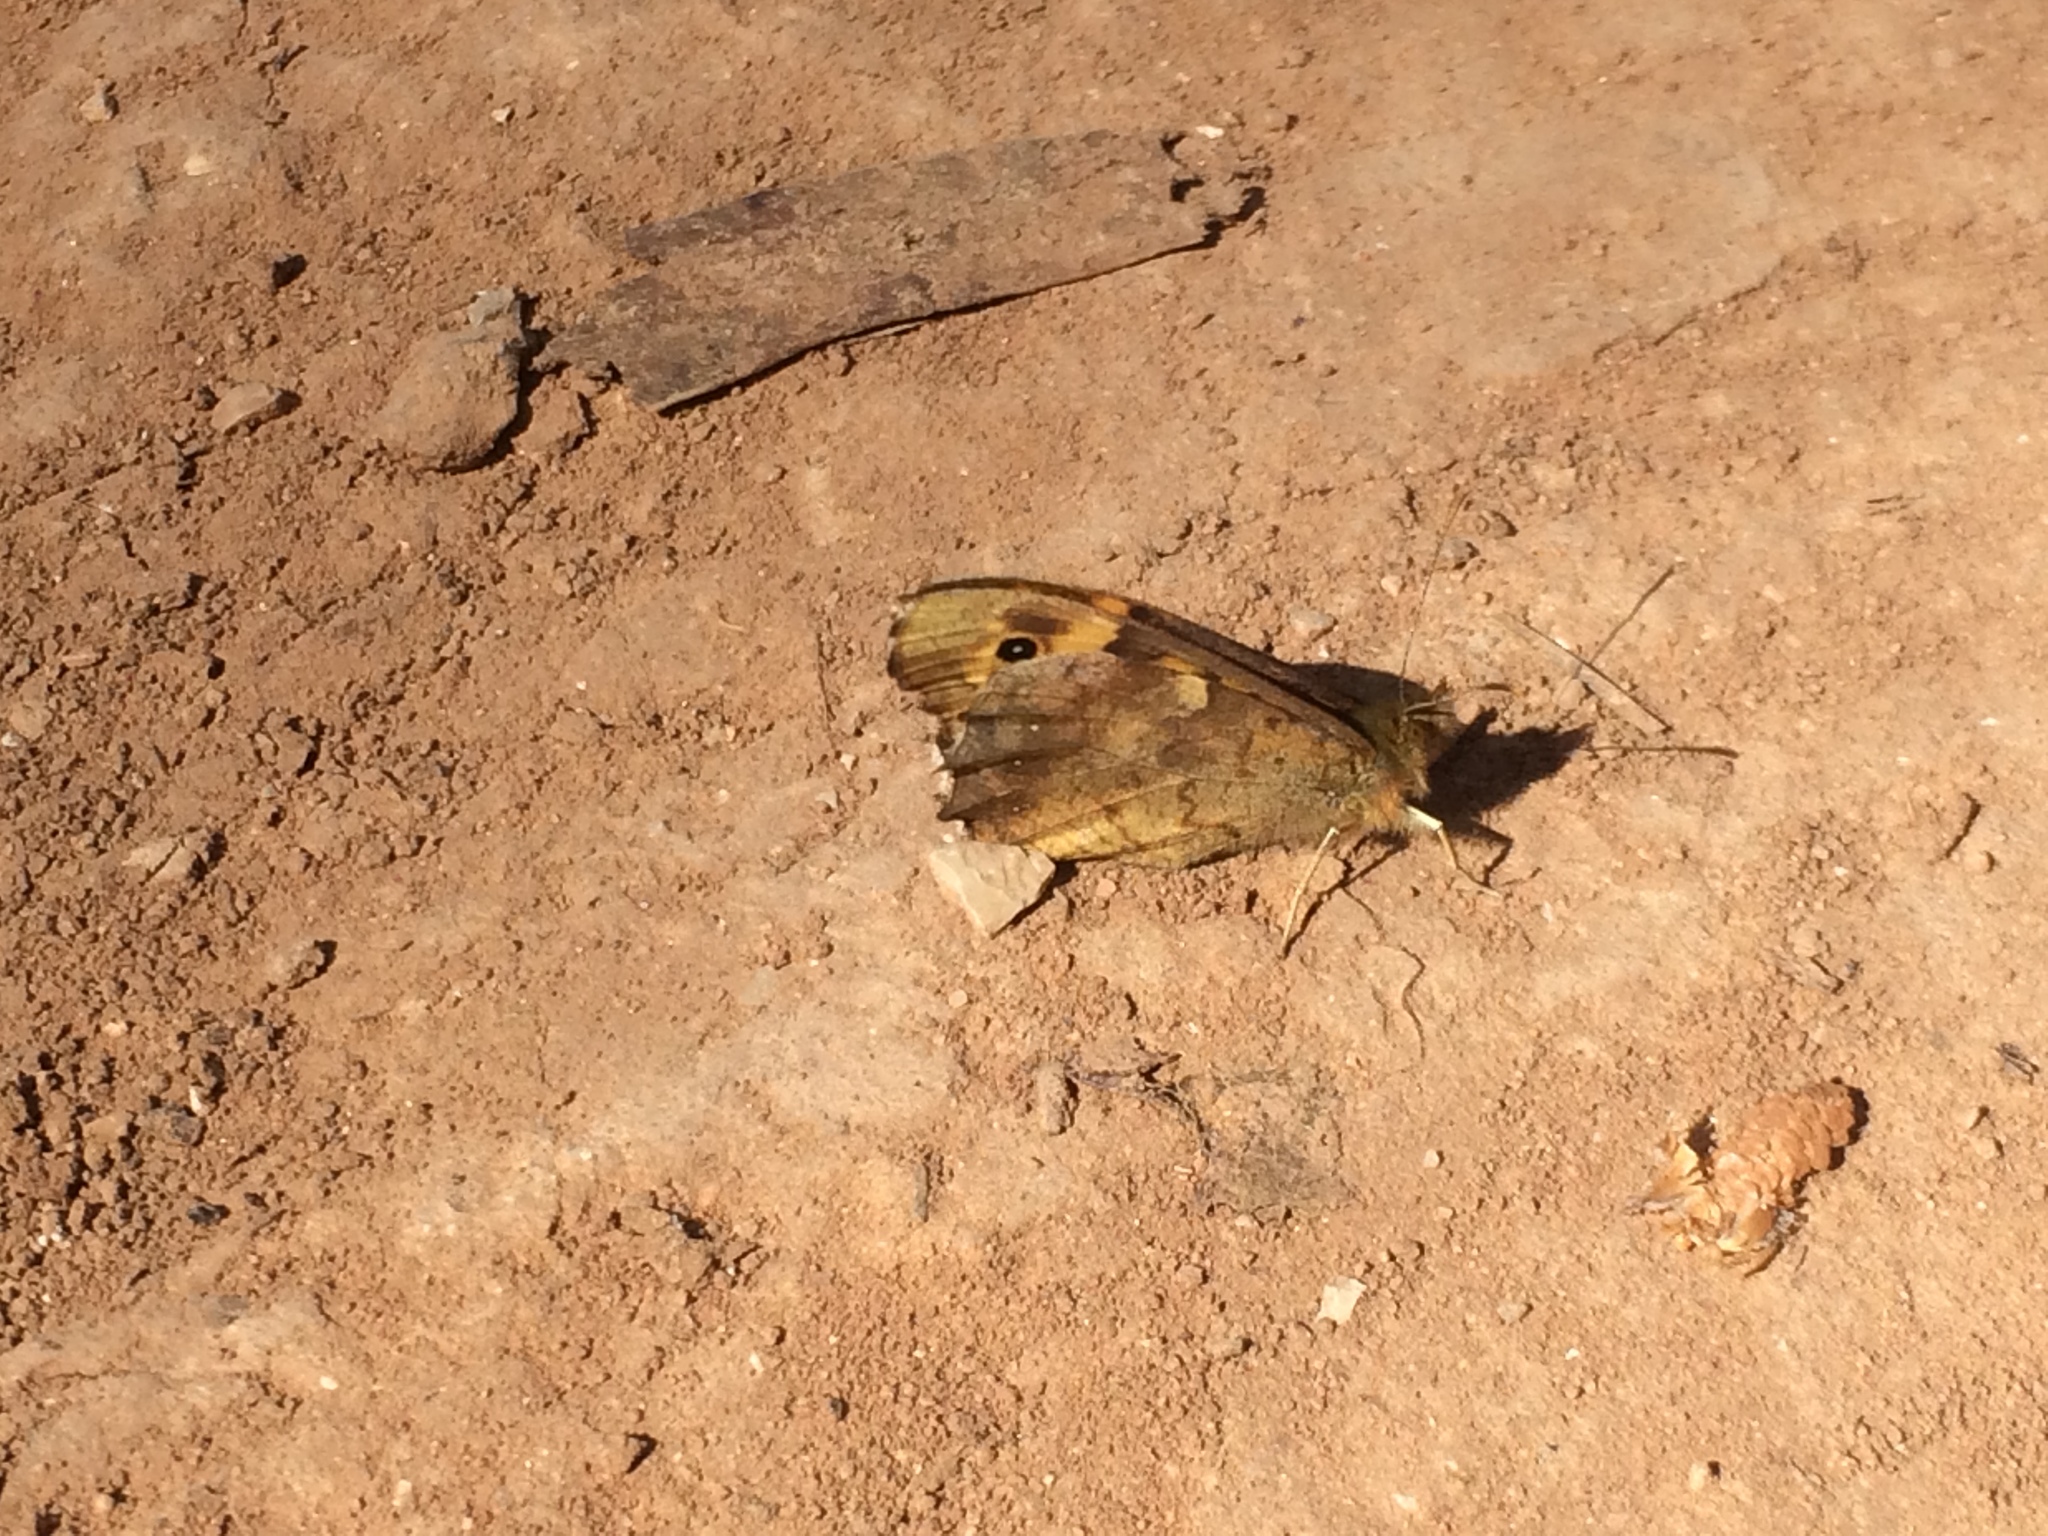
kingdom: Animalia
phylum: Arthropoda
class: Insecta
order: Lepidoptera
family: Nymphalidae
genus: Pararge
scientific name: Pararge aegeria
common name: Speckled wood
